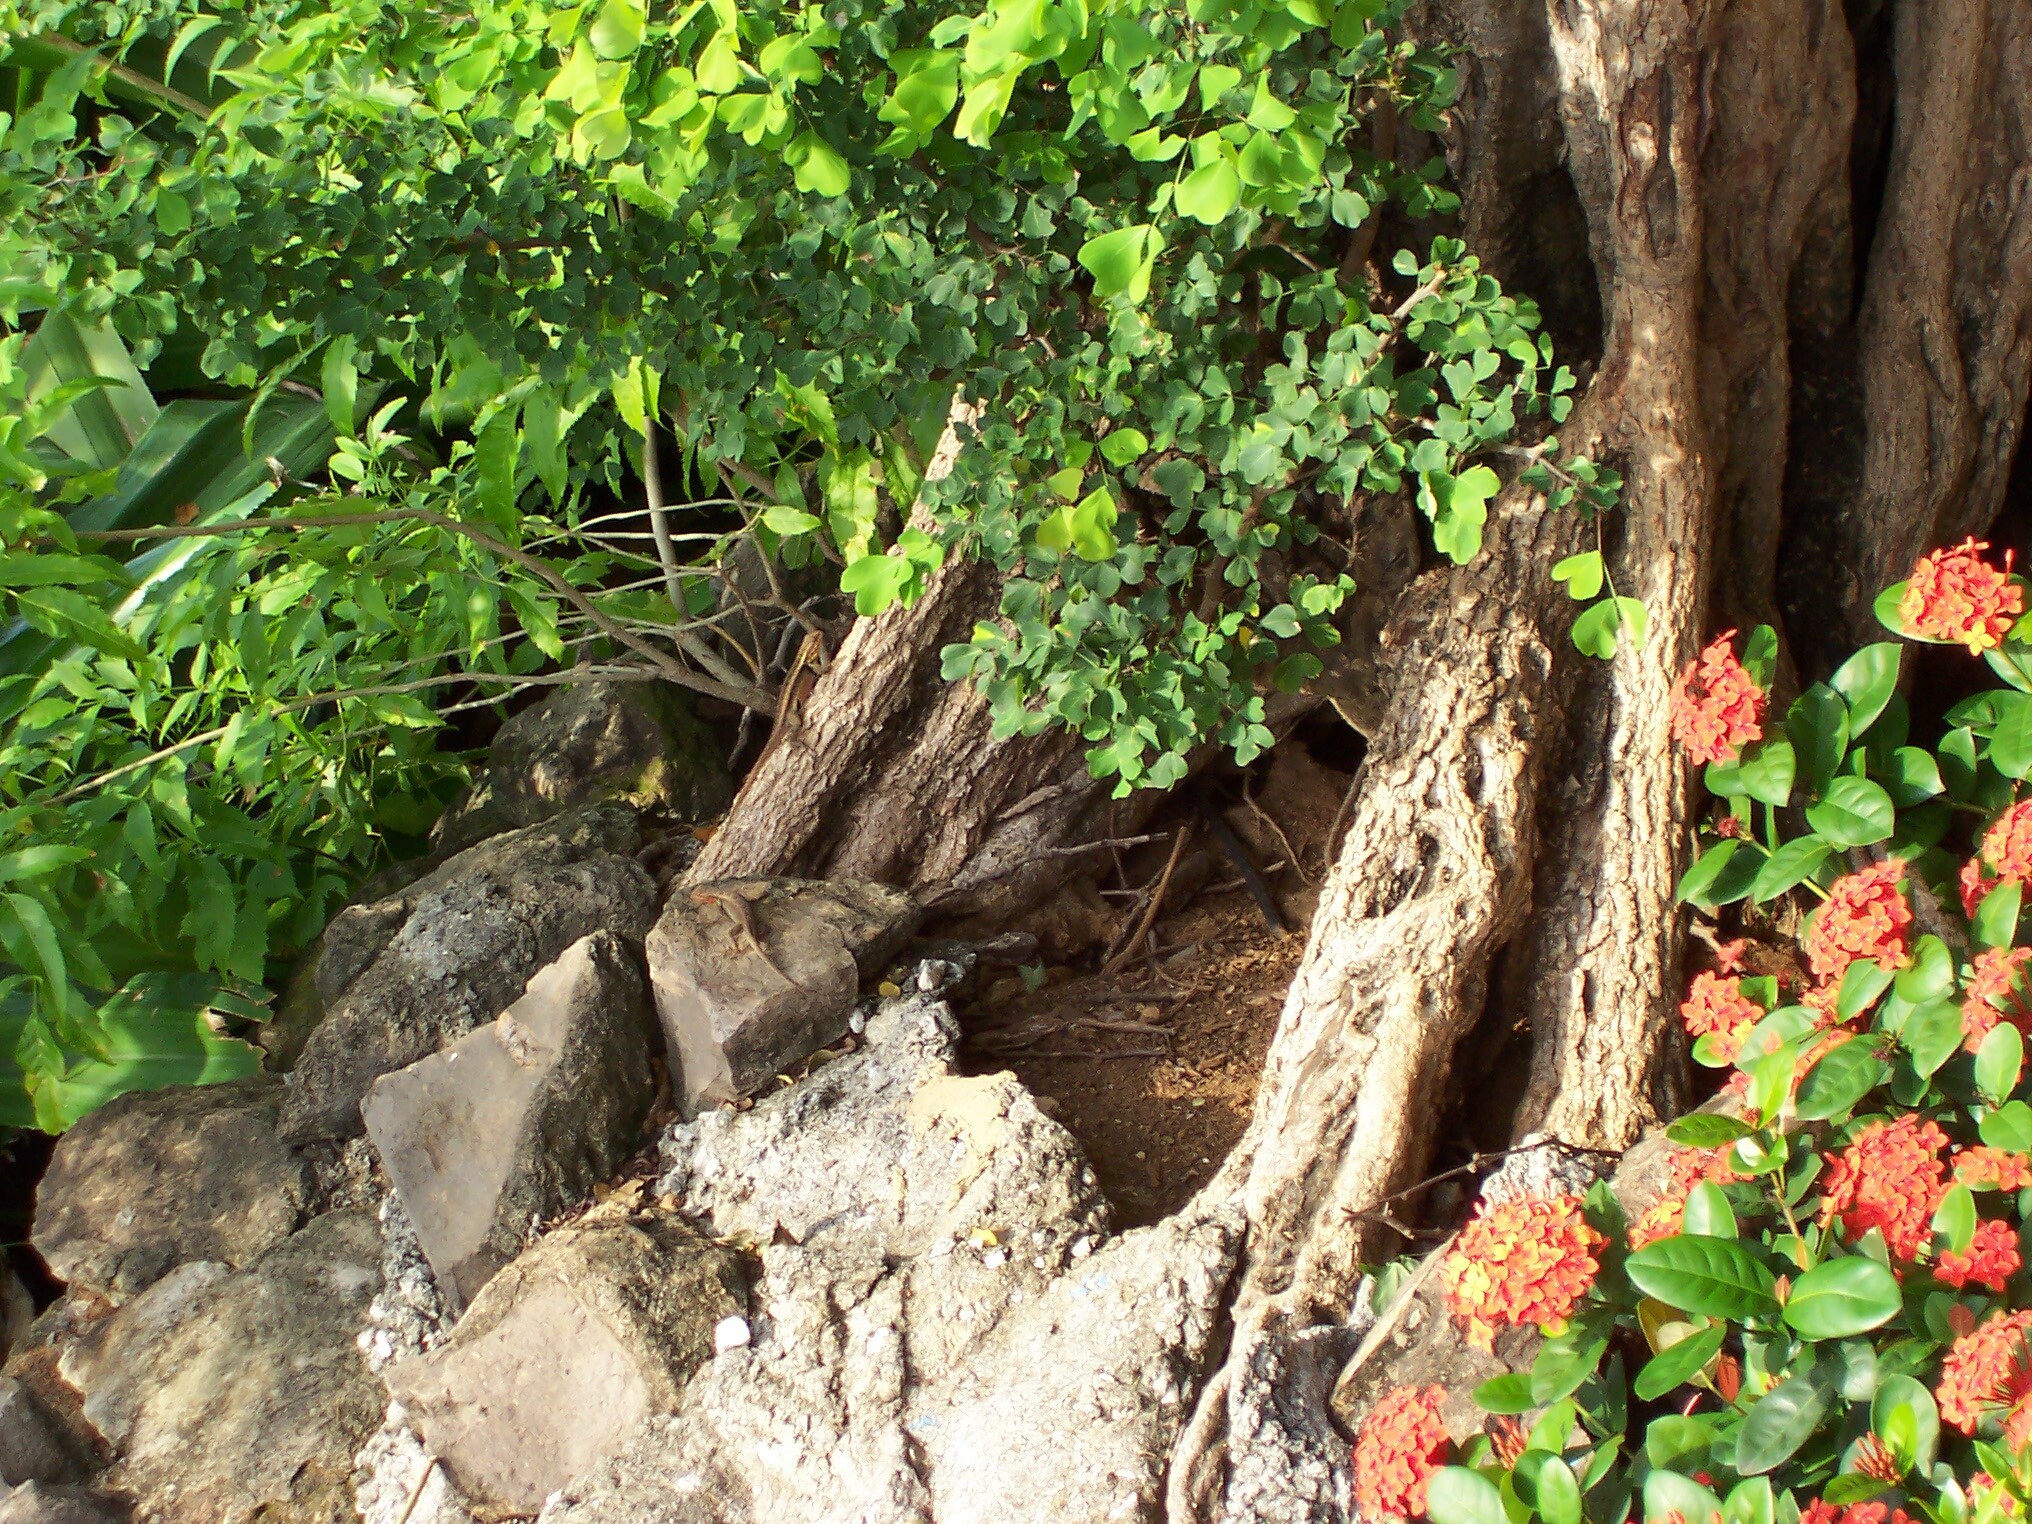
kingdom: Animalia
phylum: Chordata
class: Squamata
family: Phrynosomatidae
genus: Sceloporus
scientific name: Sceloporus variabilis
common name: Rosebelly lizard
